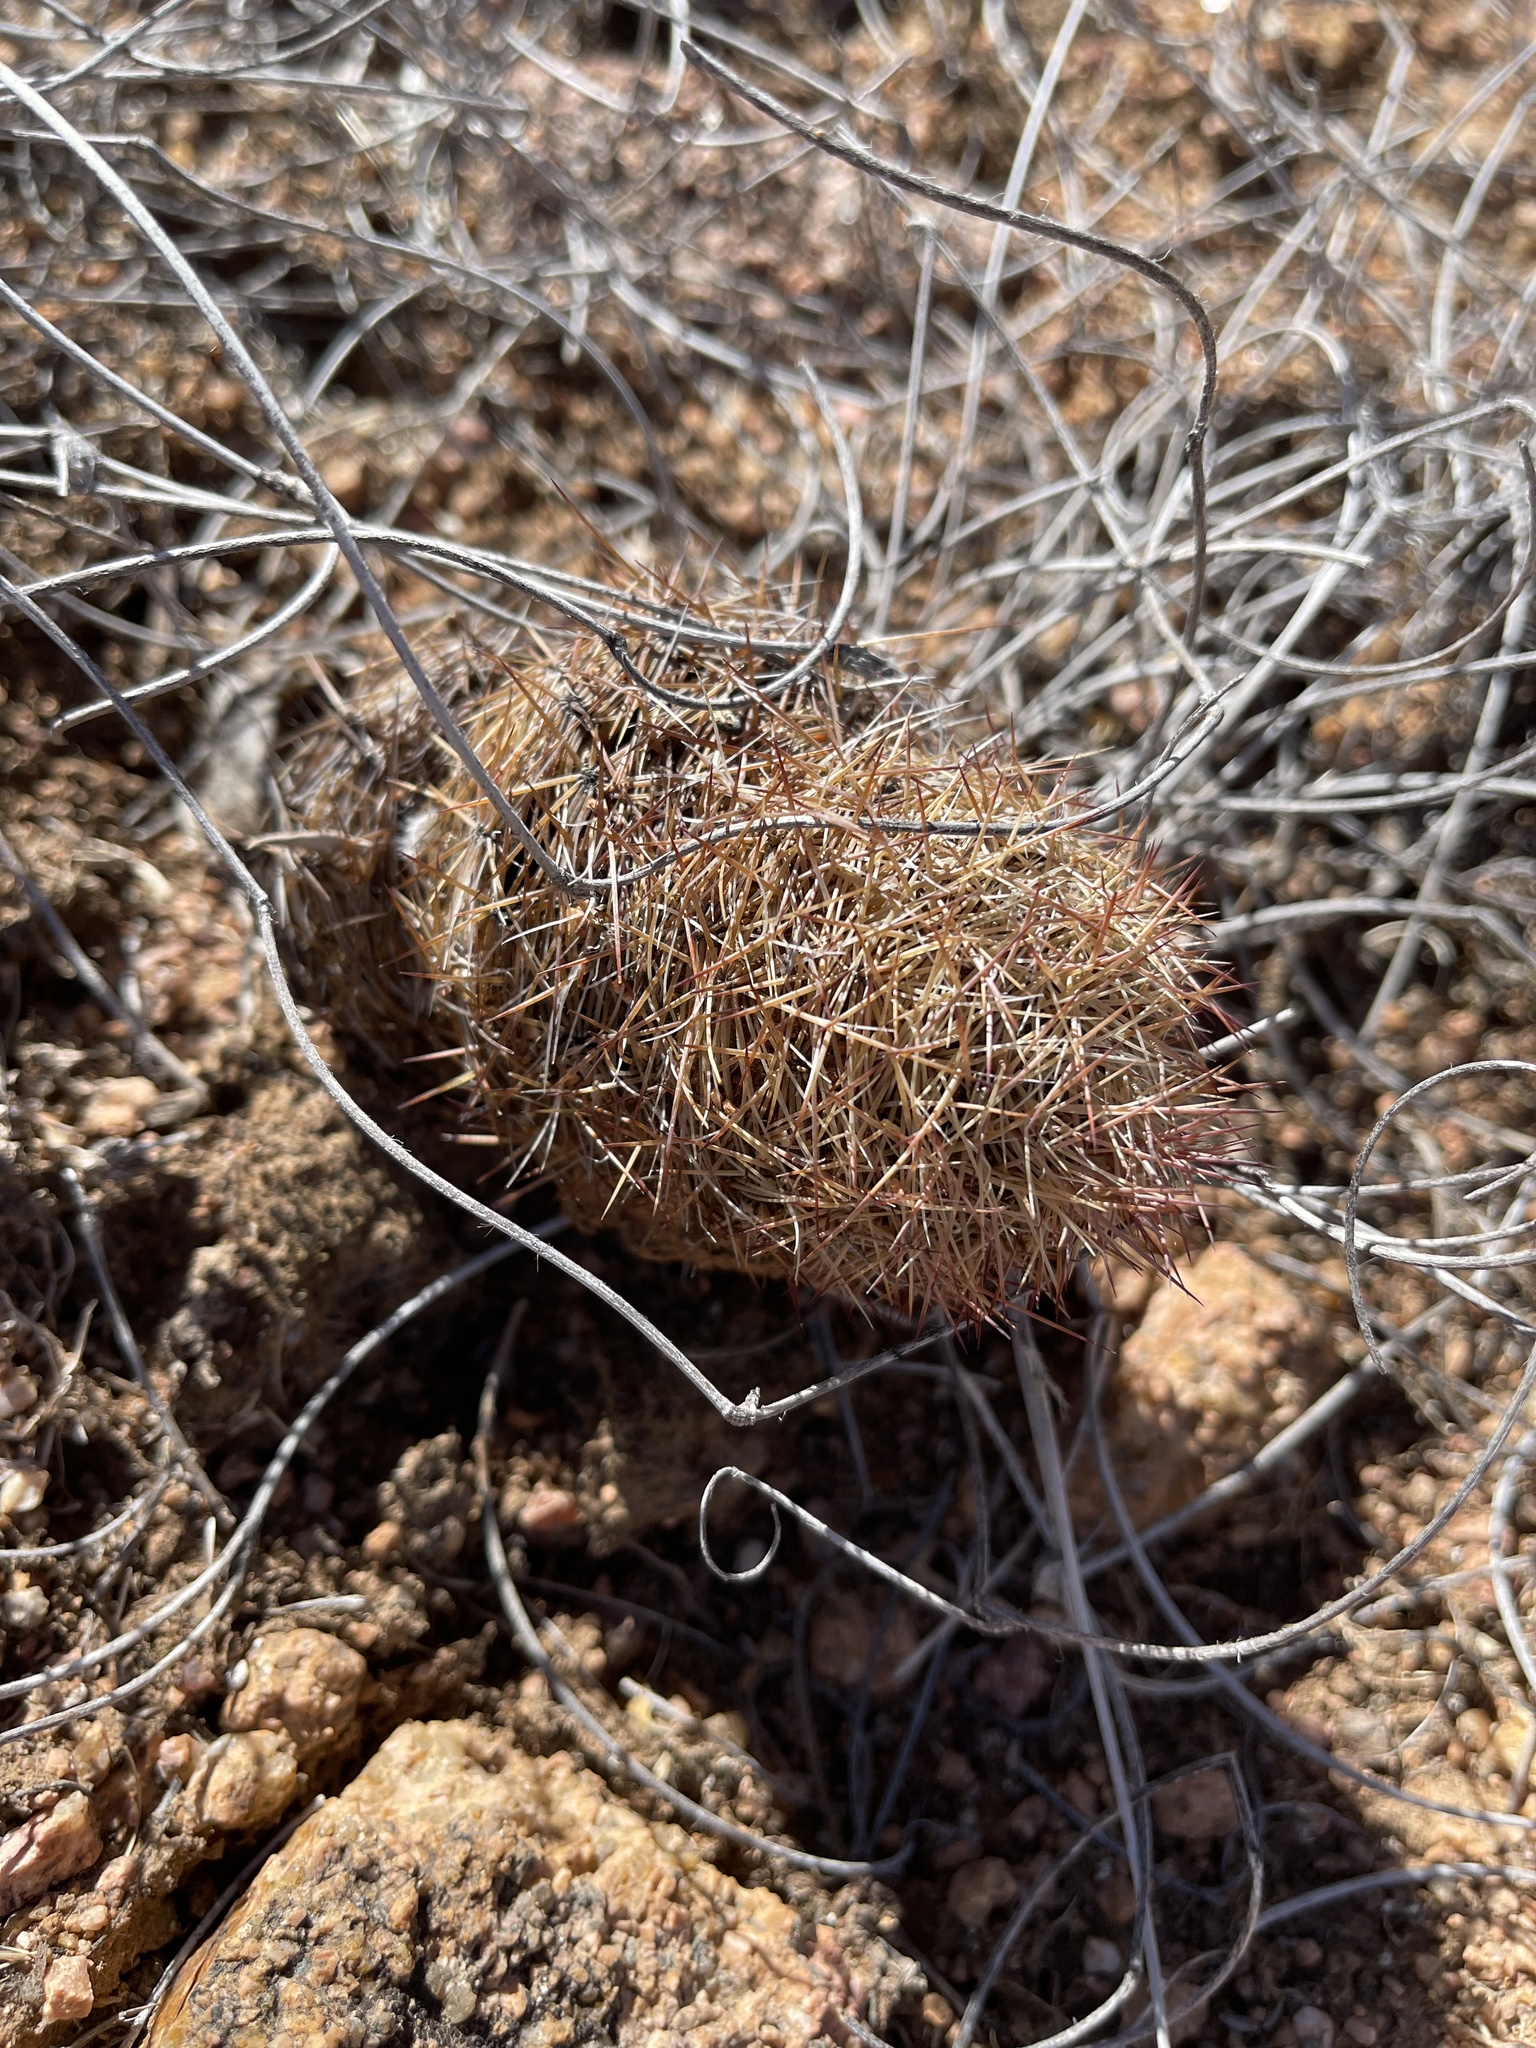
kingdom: Plantae
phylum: Tracheophyta
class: Magnoliopsida
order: Caryophyllales
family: Cactaceae
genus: Sclerocactus
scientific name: Sclerocactus intertextus
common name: White fish-hook cactus
